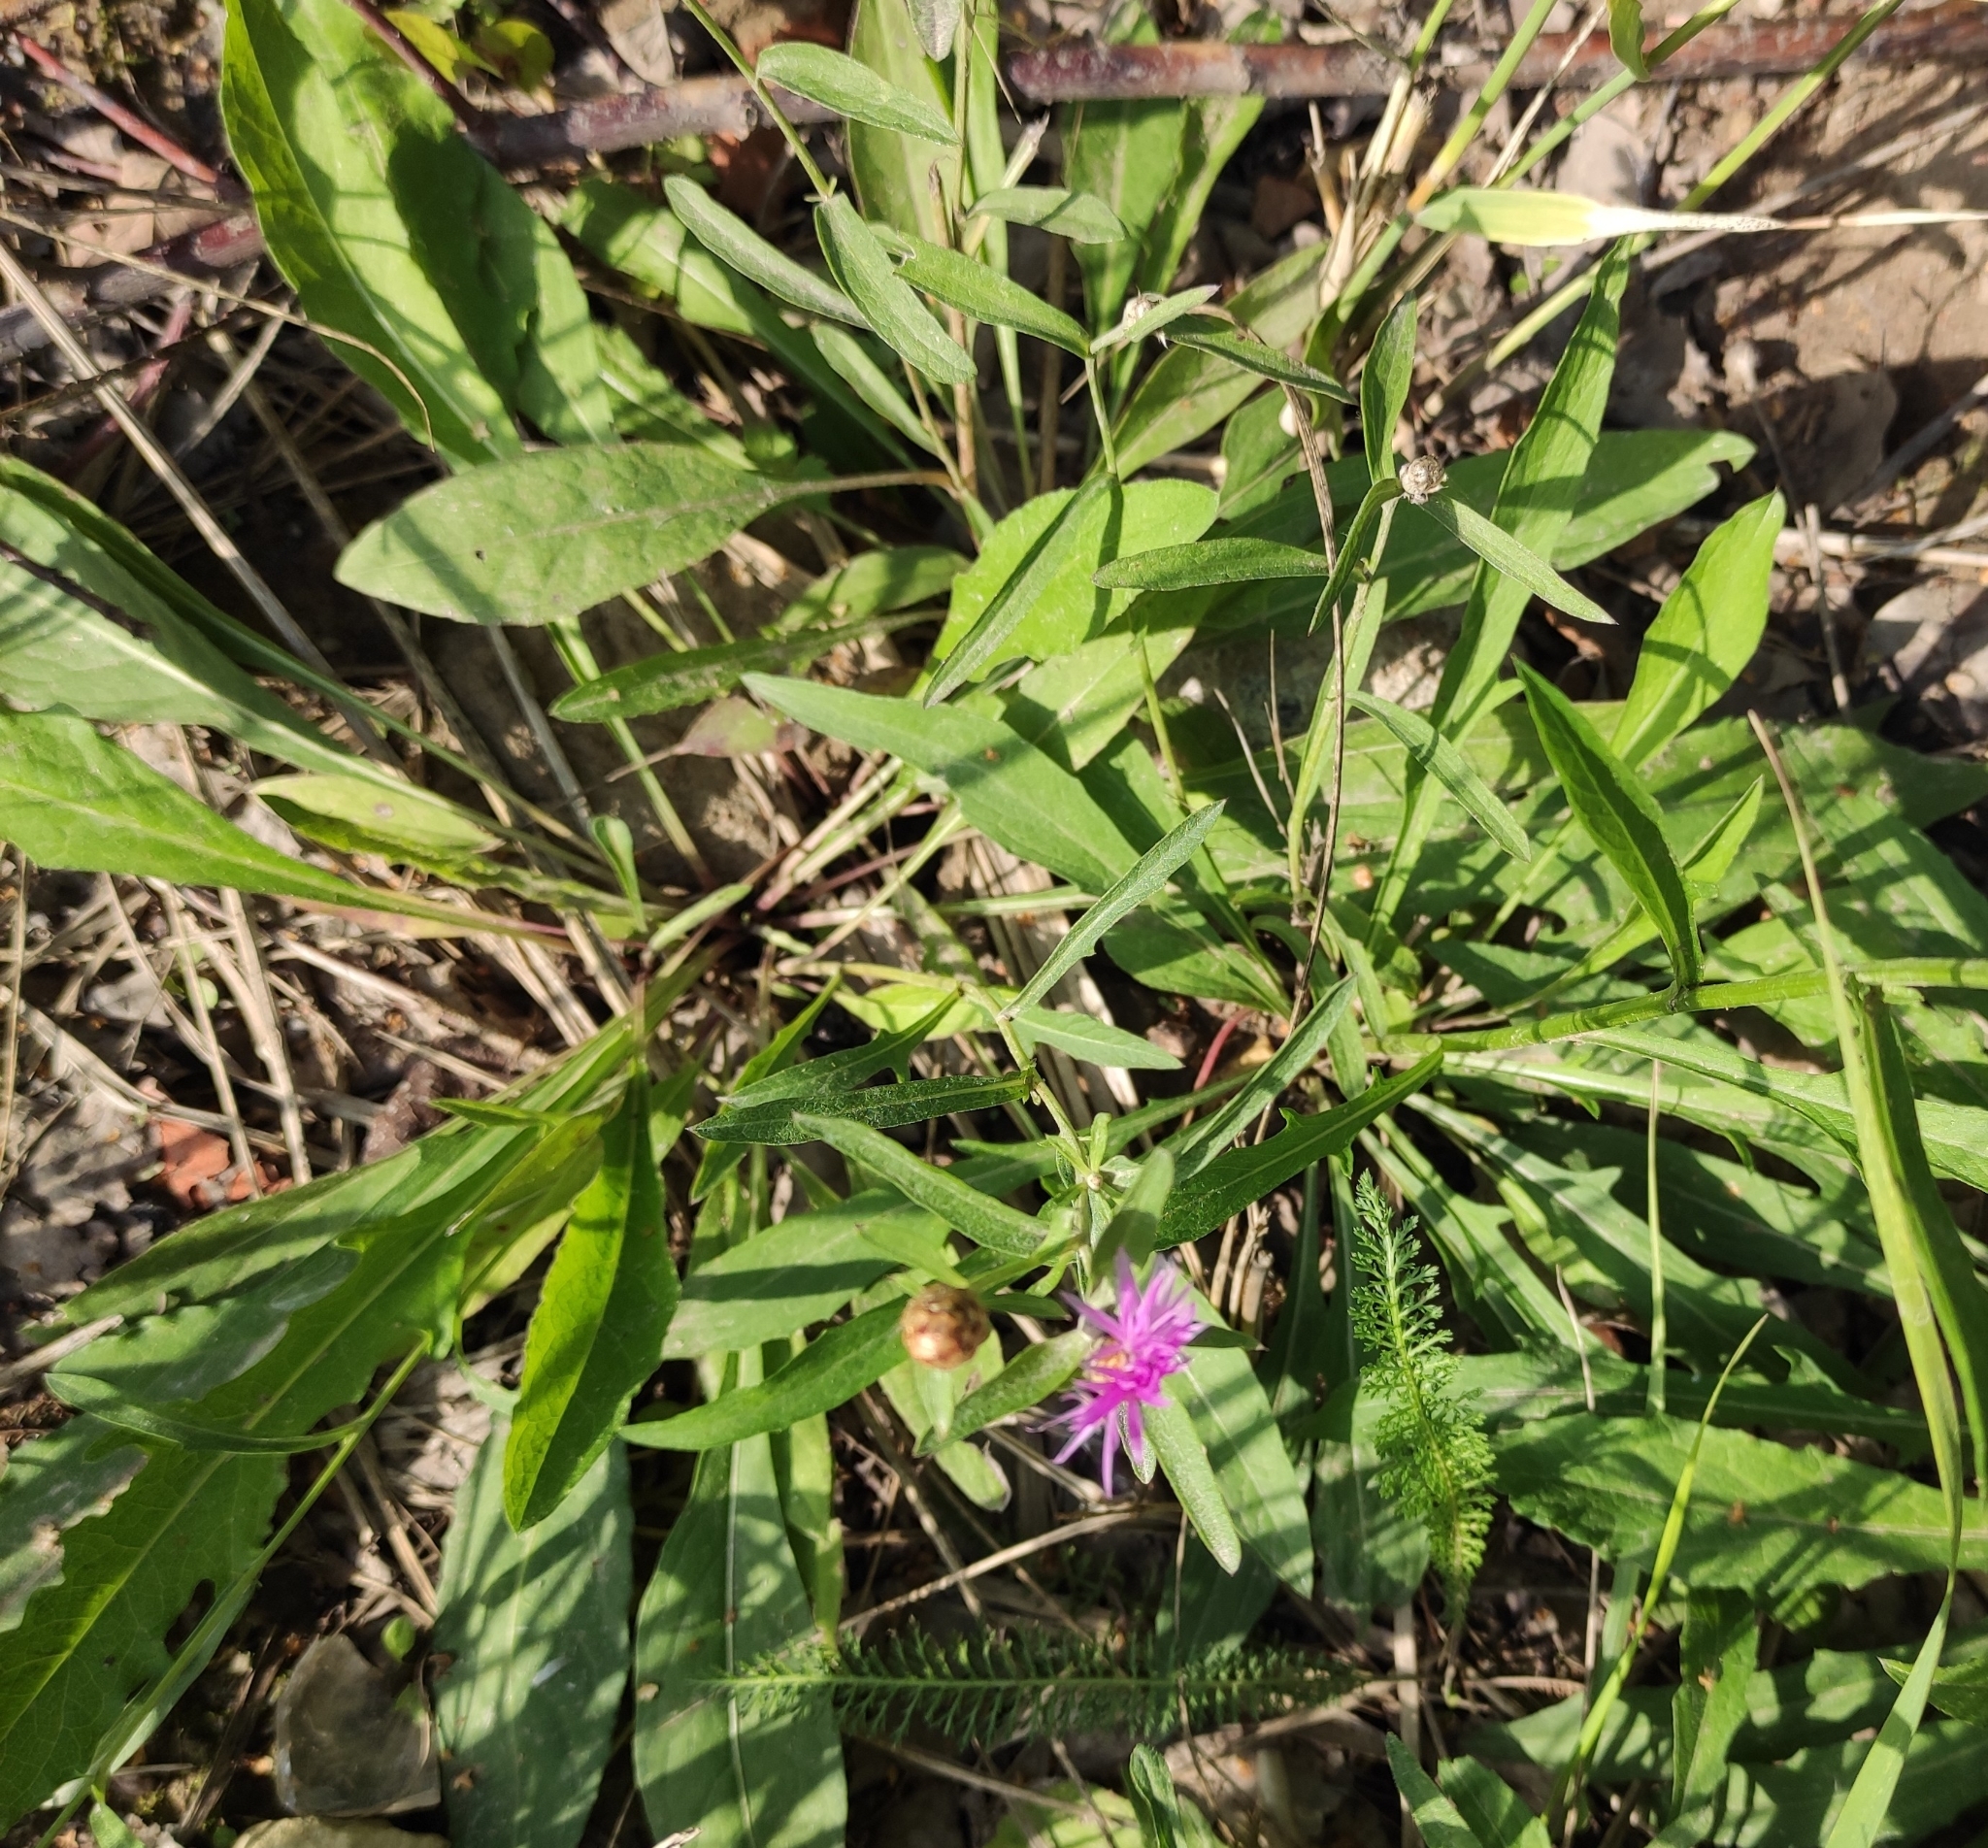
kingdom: Plantae
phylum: Tracheophyta
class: Magnoliopsida
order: Asterales
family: Asteraceae
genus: Centaurea
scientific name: Centaurea jacea
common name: Brown knapweed
